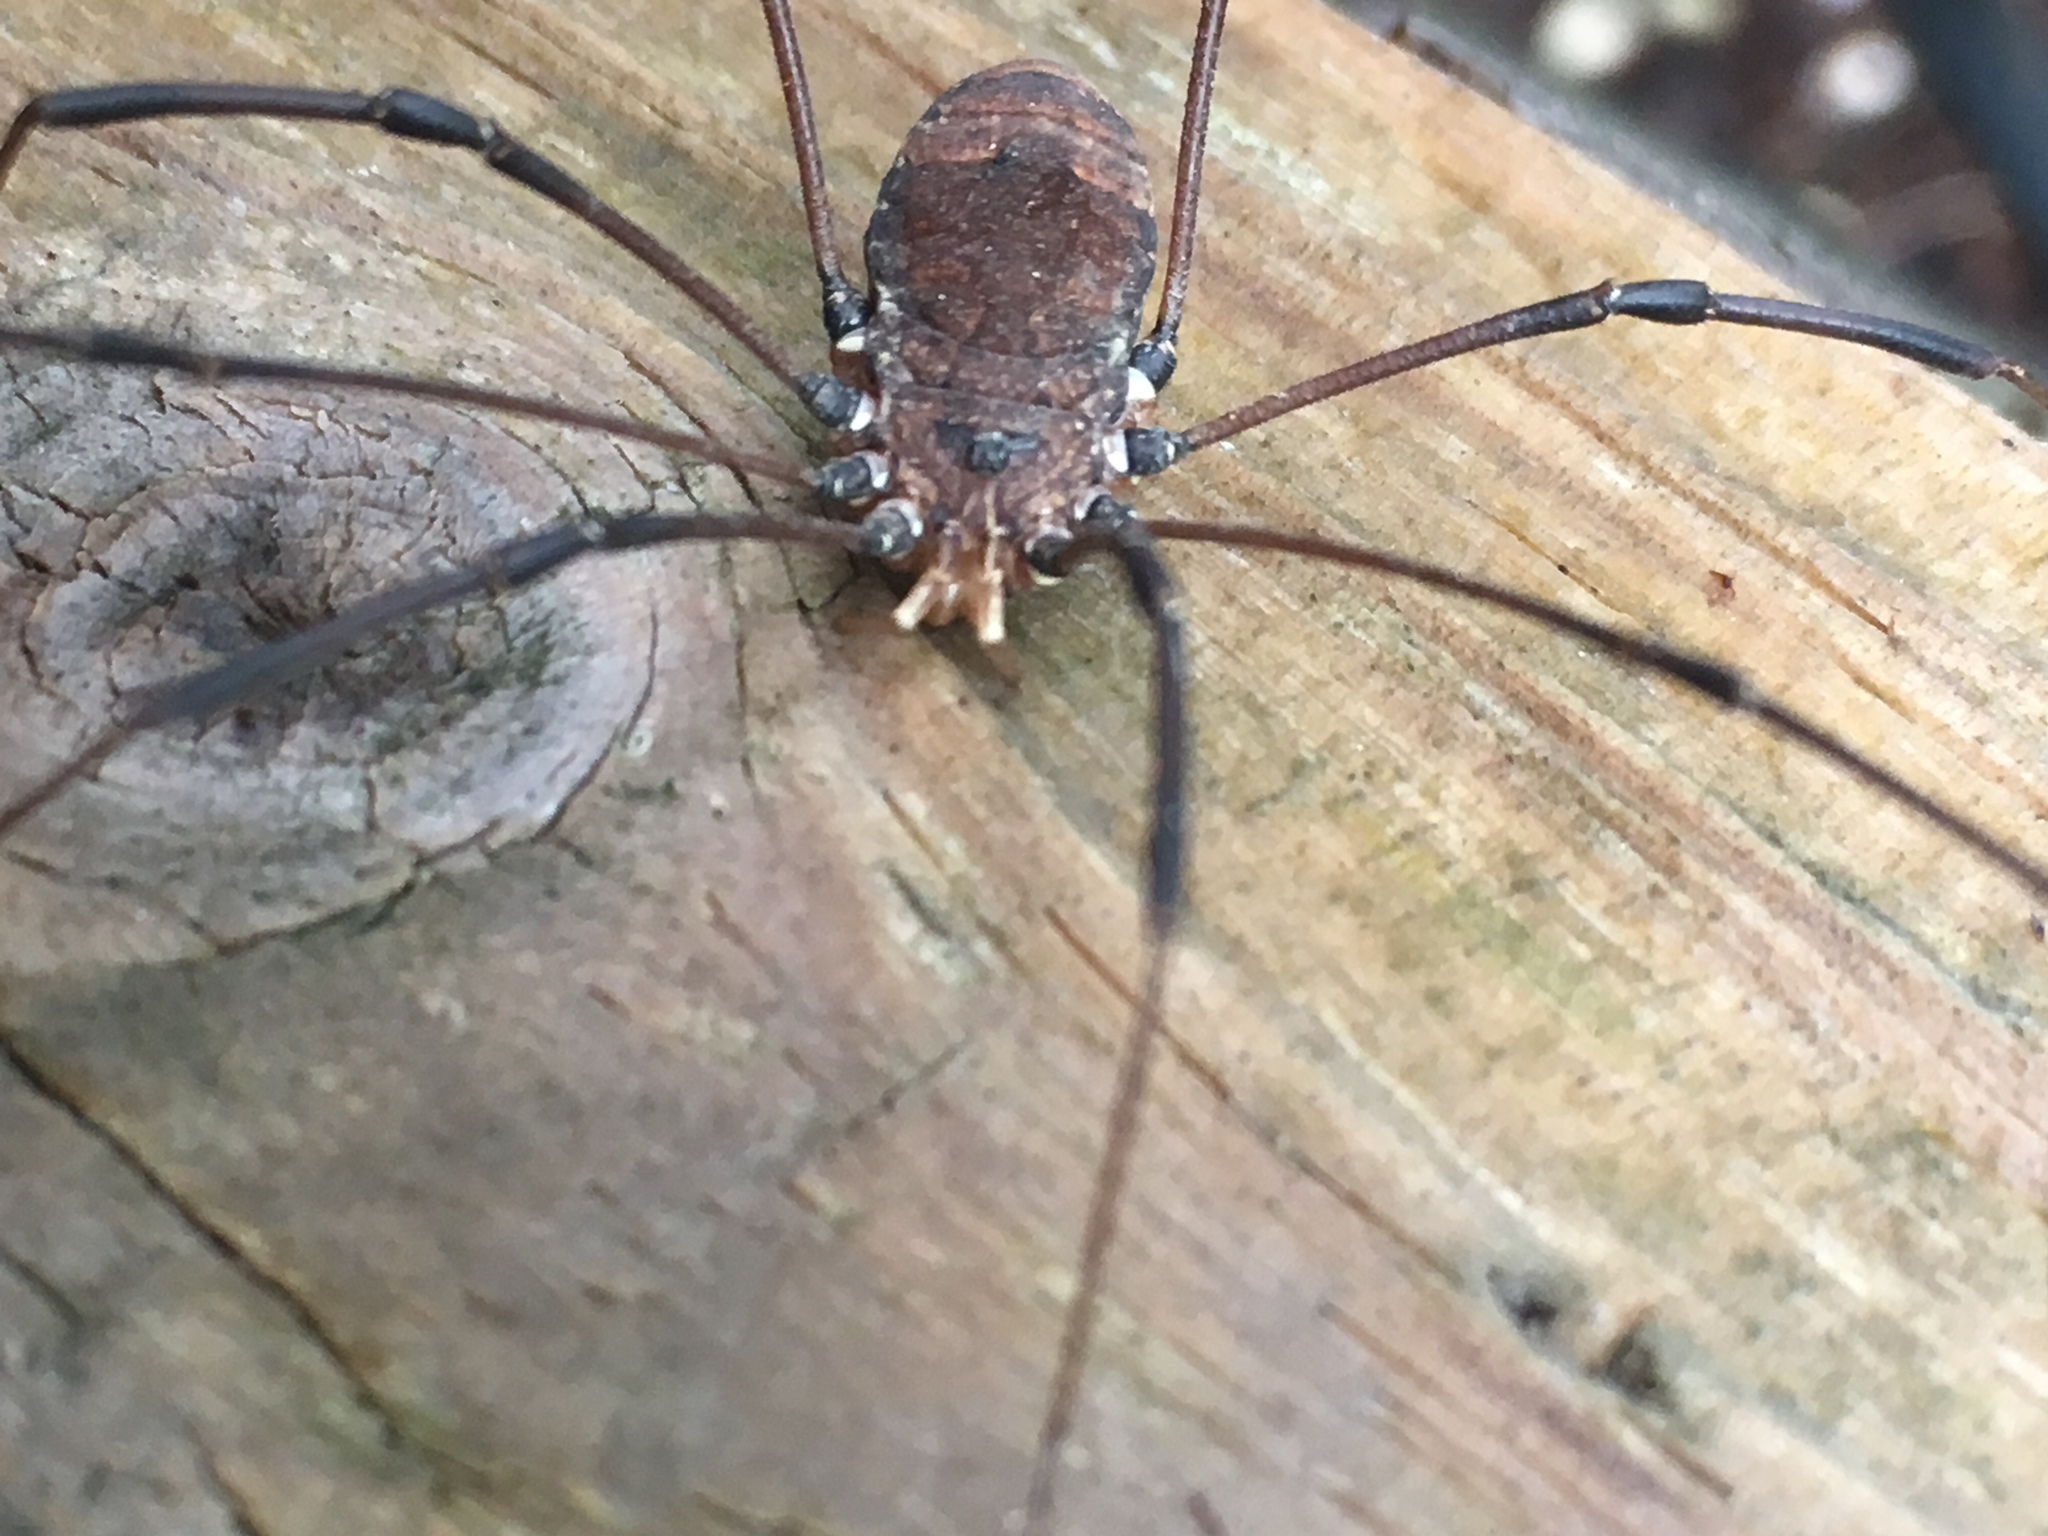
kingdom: Animalia
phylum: Arthropoda
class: Arachnida
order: Opiliones
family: Sclerosomatidae
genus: Leiobunum
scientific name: Leiobunum verrucosum
